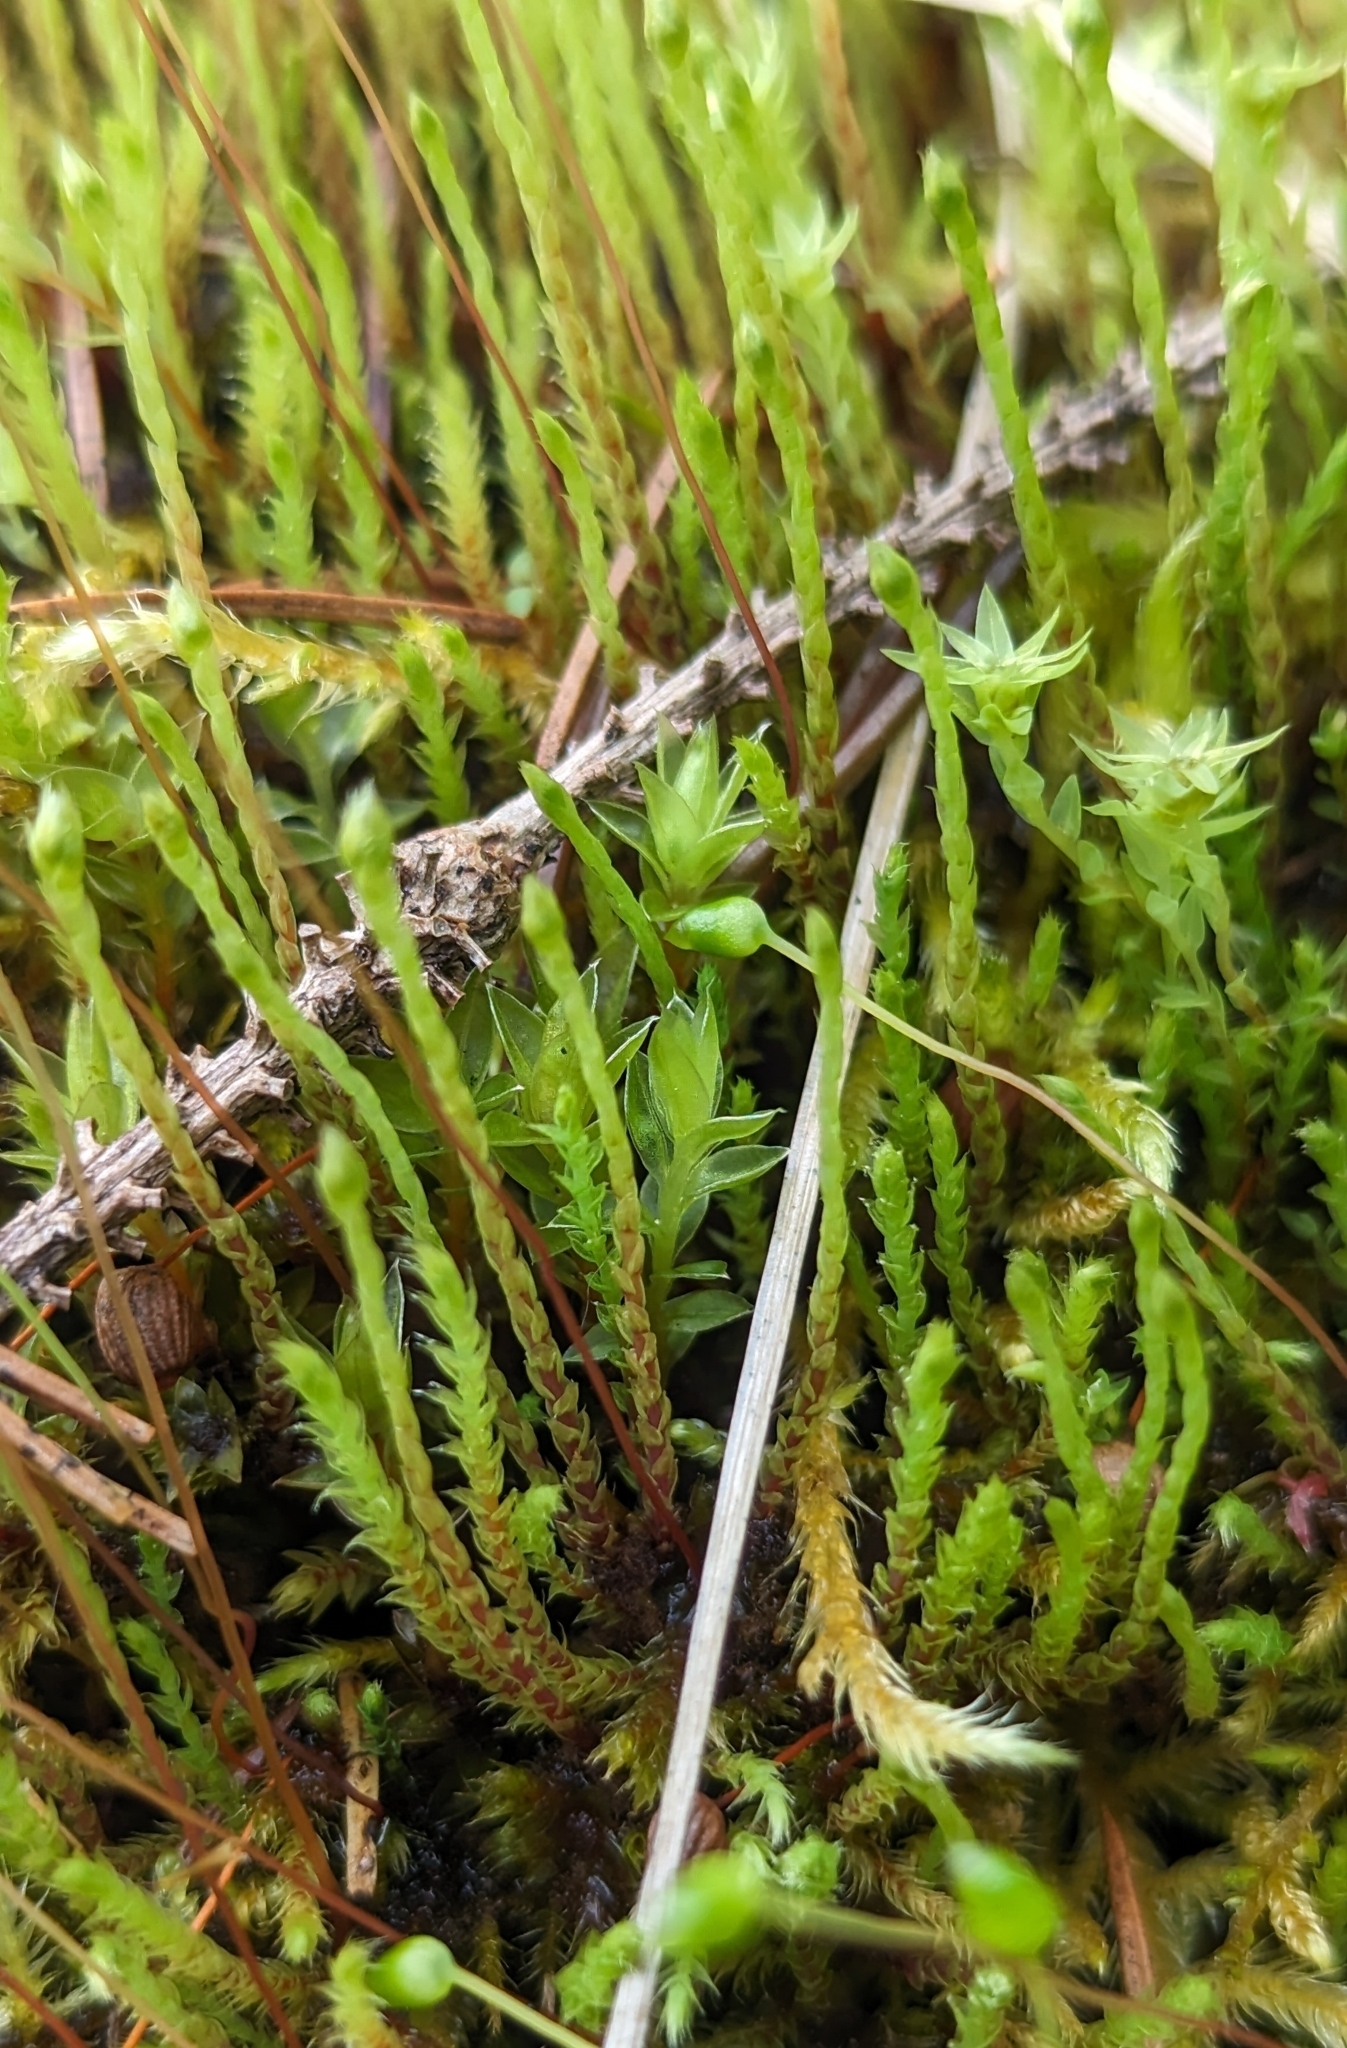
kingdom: Plantae
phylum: Bryophyta
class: Bryopsida
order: Bartramiales
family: Bartramiaceae
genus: Philonotis
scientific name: Philonotis fontana
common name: Fountain apple-moss
